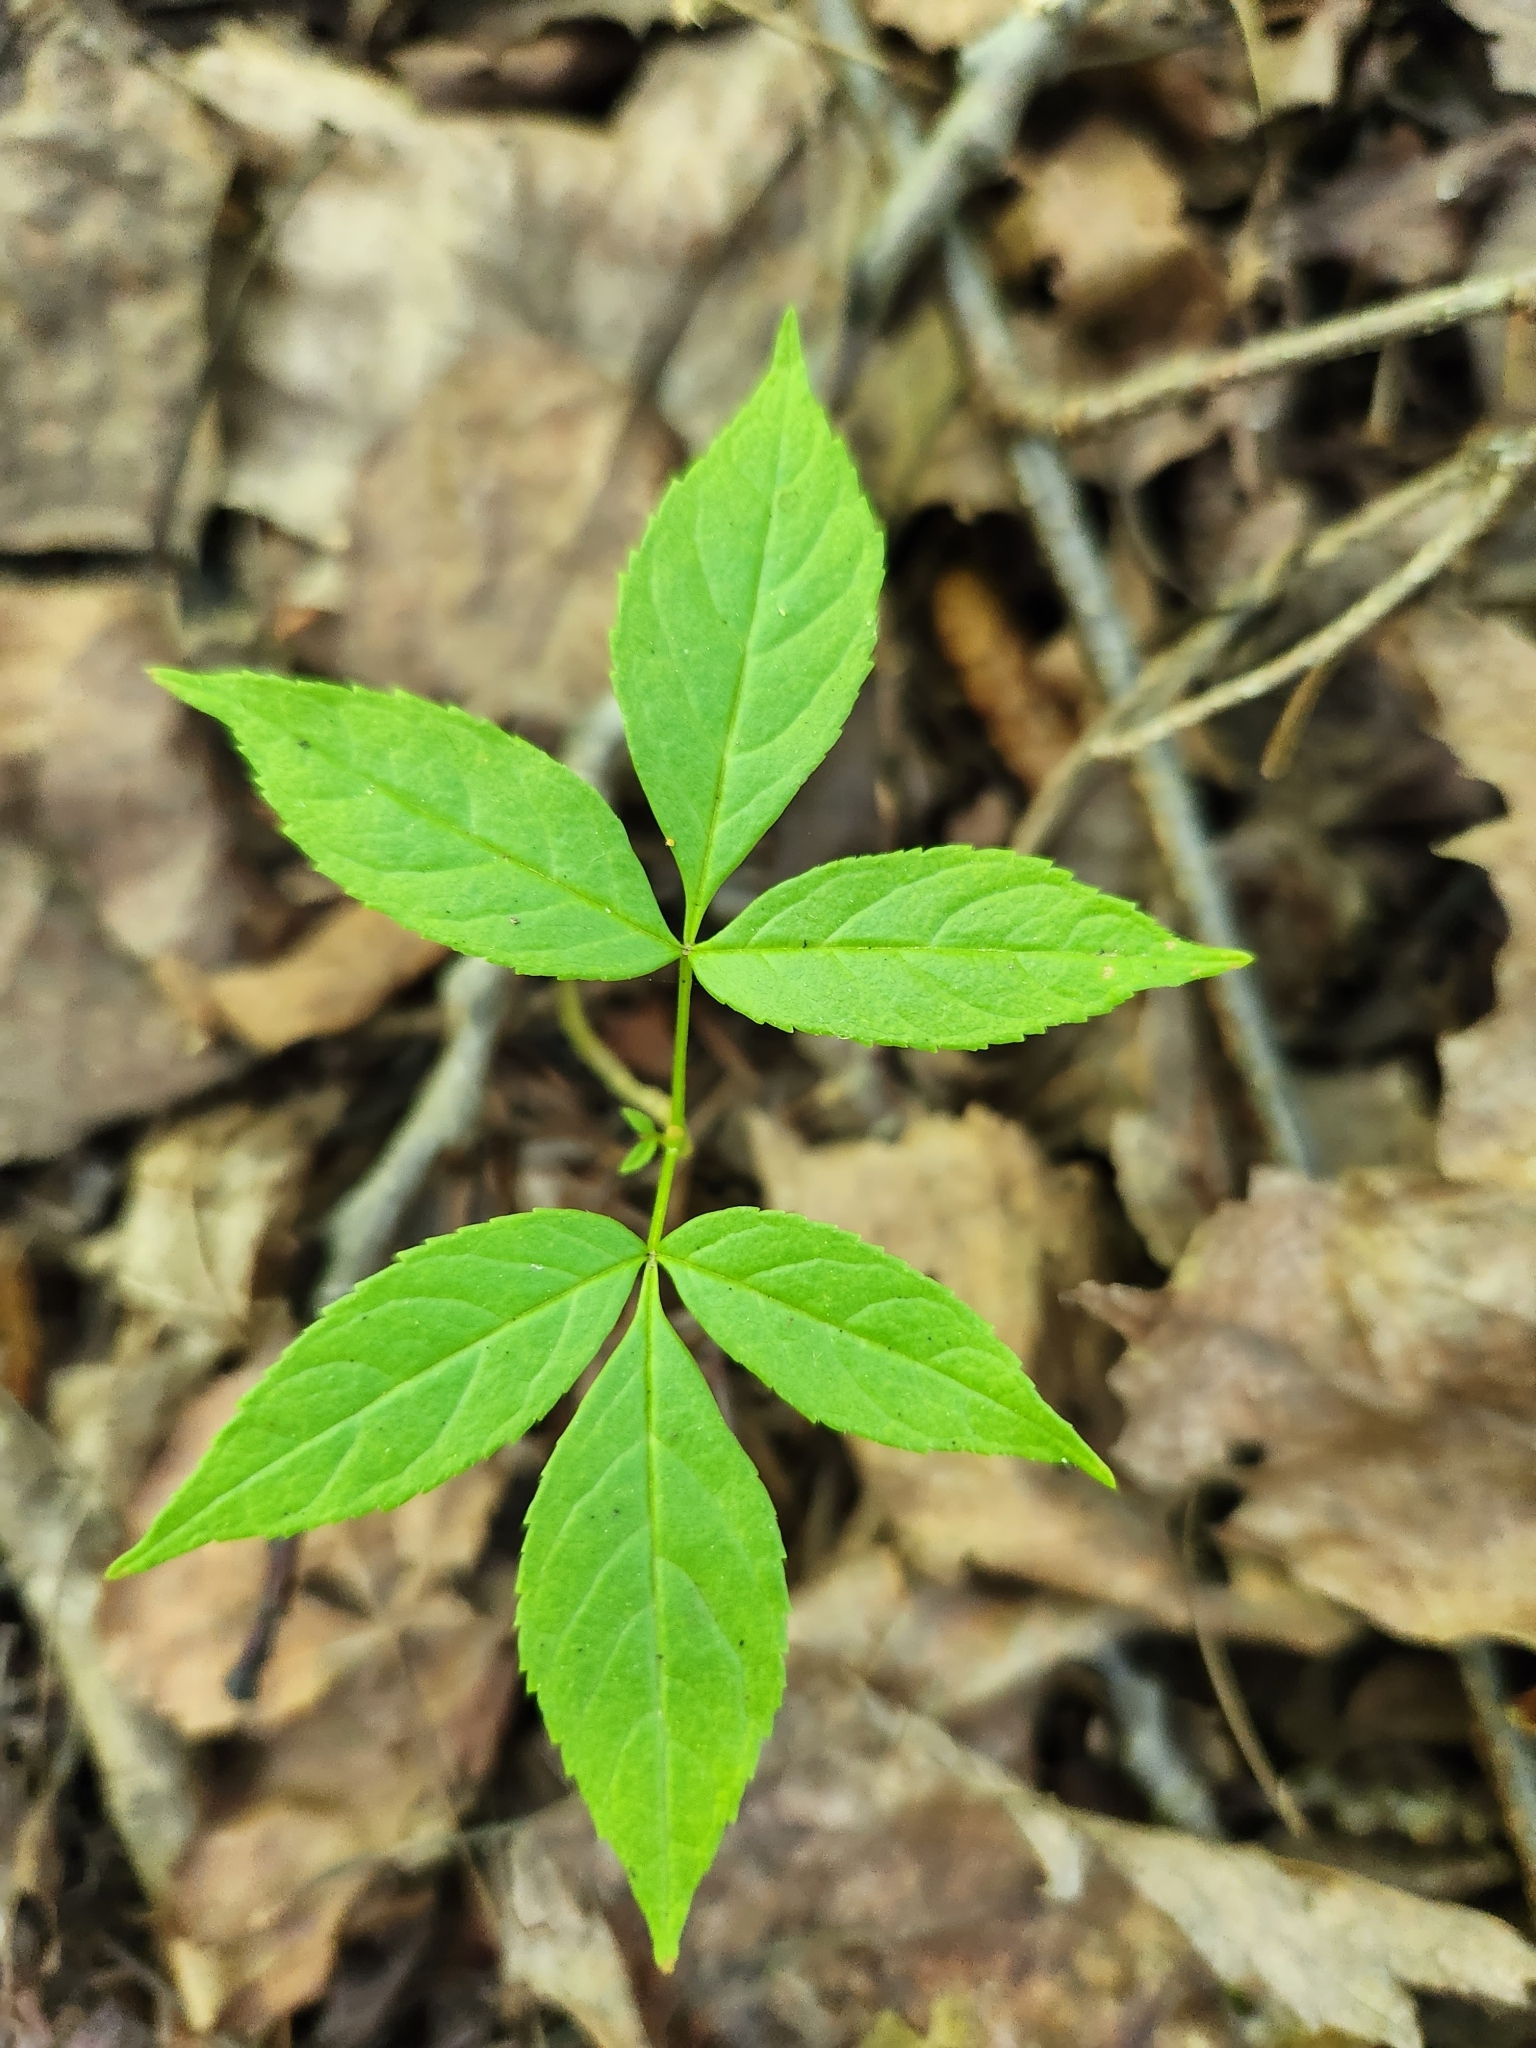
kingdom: Plantae
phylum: Tracheophyta
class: Magnoliopsida
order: Lamiales
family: Oleaceae
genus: Fraxinus
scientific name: Fraxinus nigra
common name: Black ash
